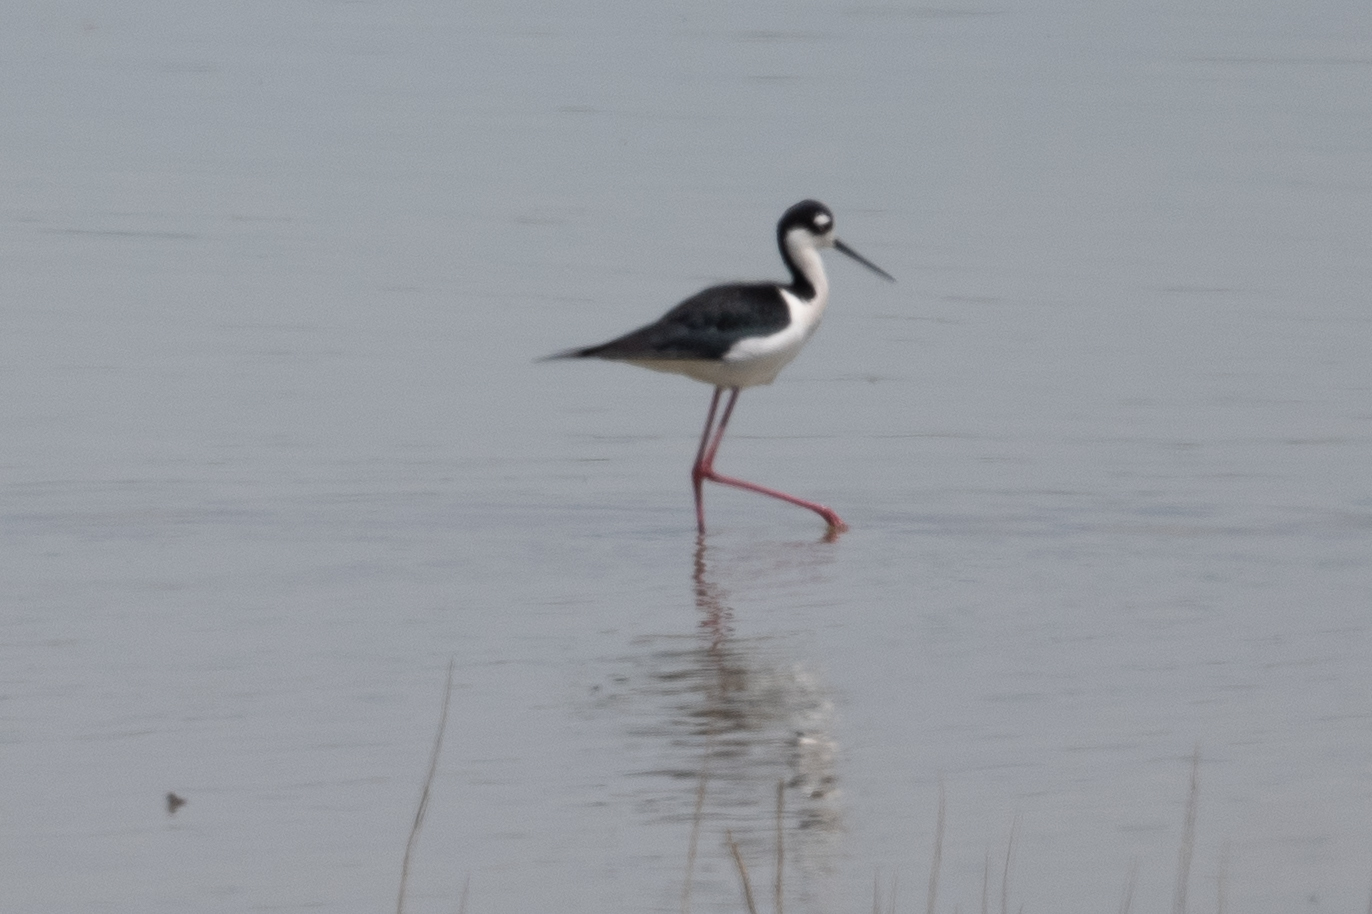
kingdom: Animalia
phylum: Chordata
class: Aves
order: Charadriiformes
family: Recurvirostridae
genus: Himantopus
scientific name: Himantopus mexicanus
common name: Black-necked stilt
